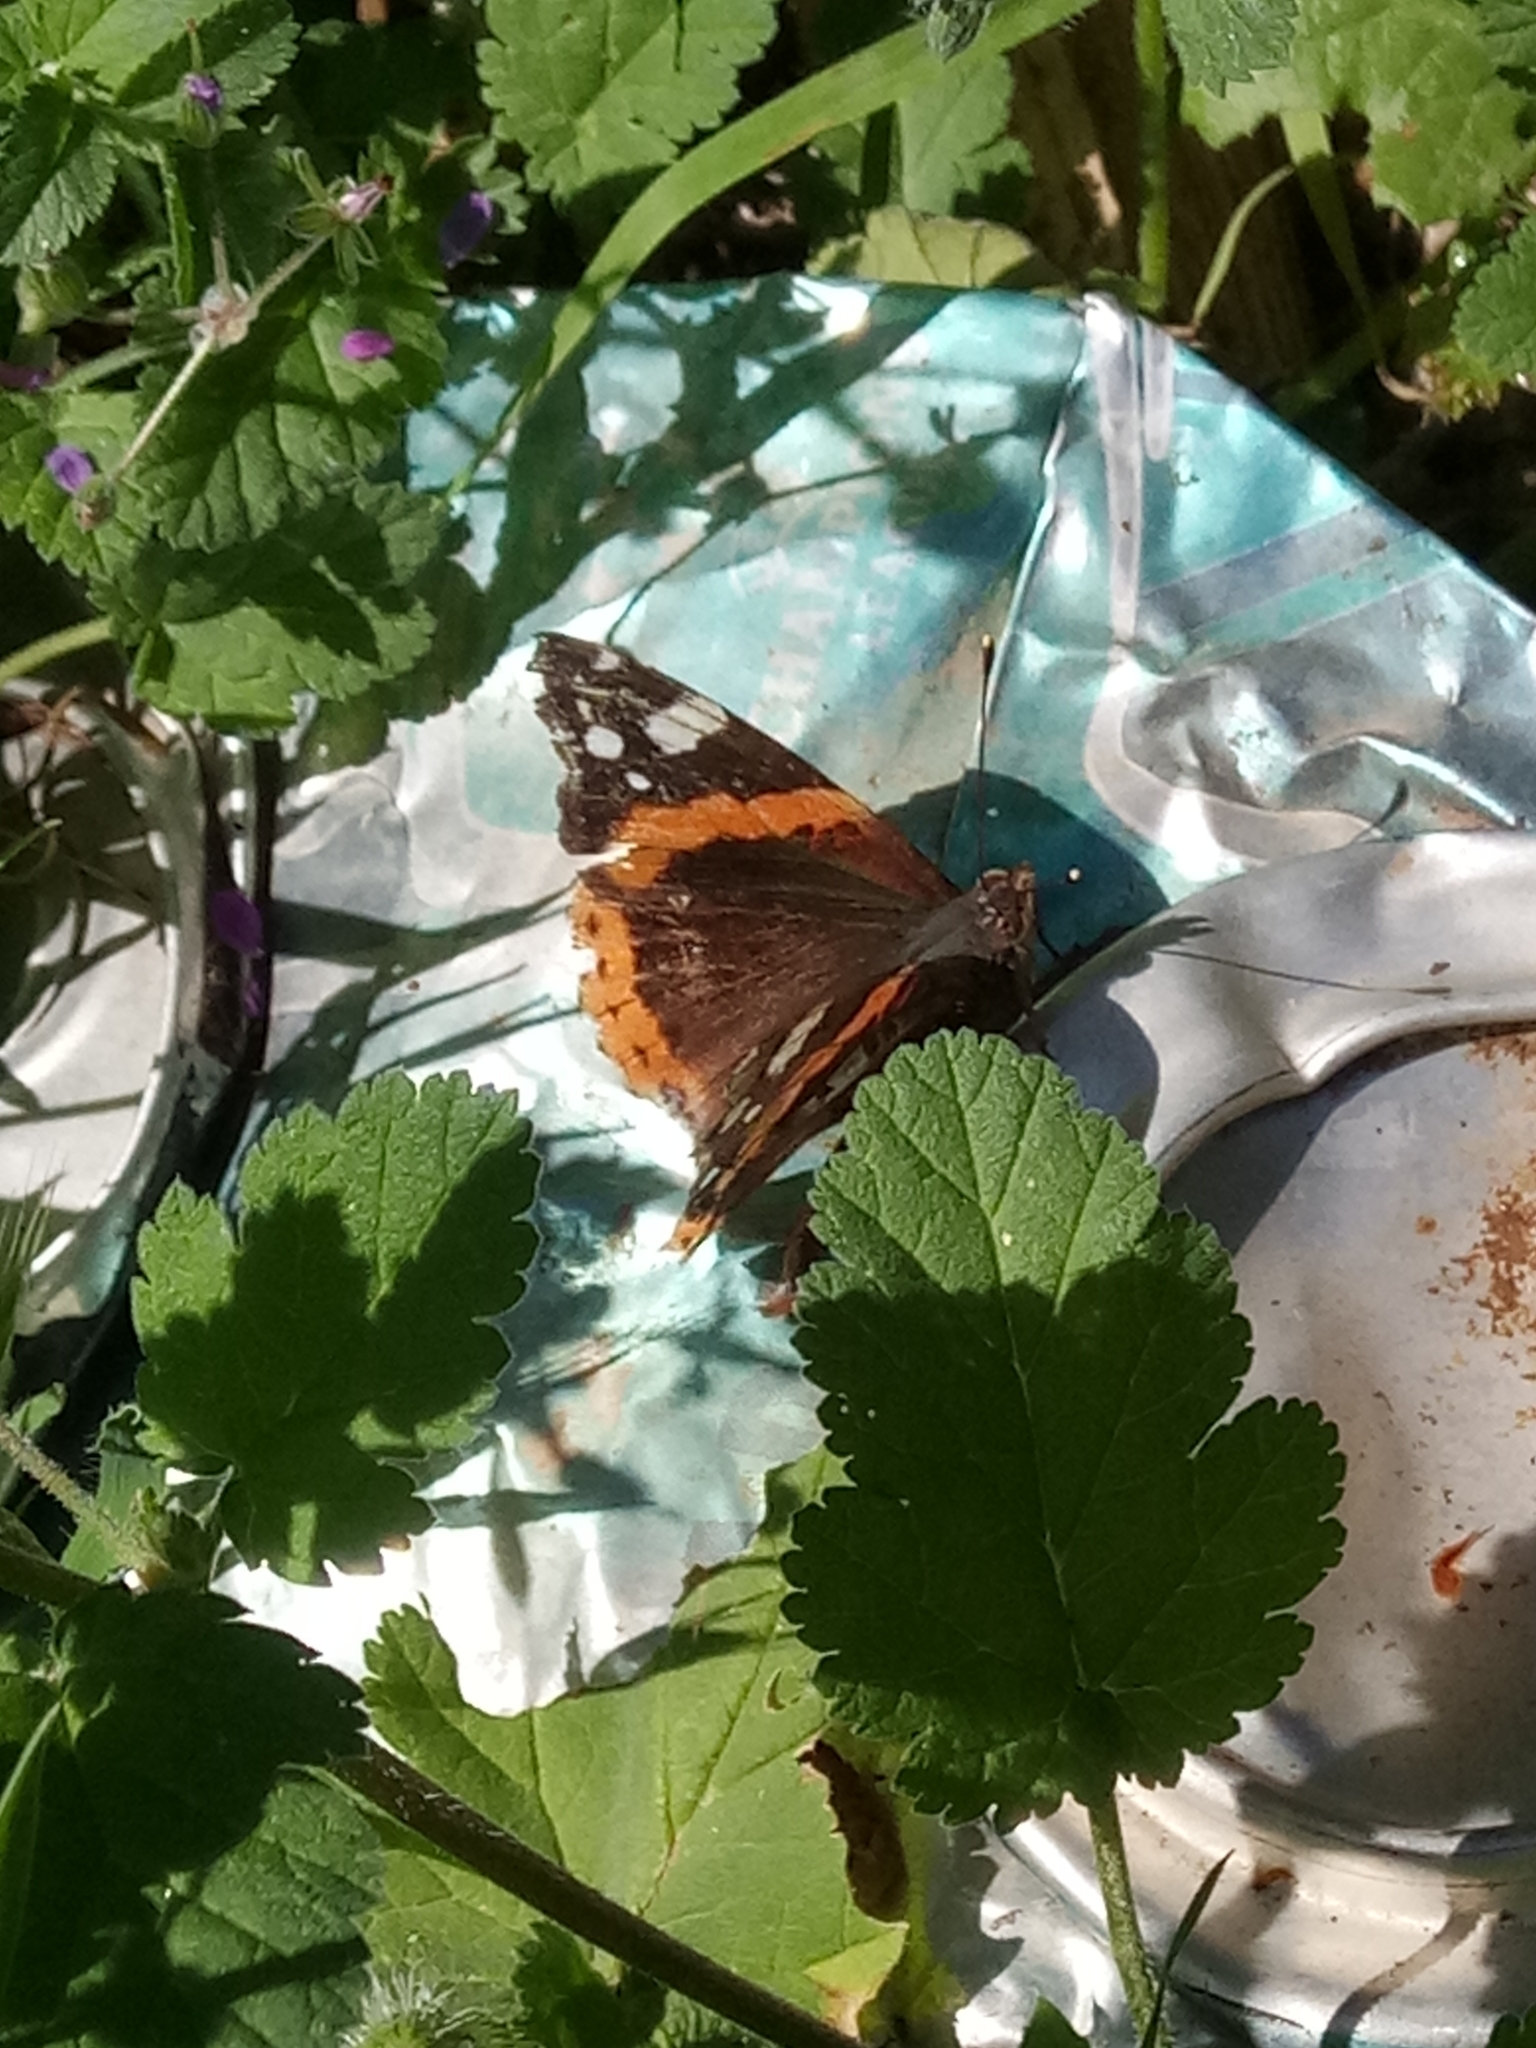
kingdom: Animalia
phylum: Arthropoda
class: Insecta
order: Lepidoptera
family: Nymphalidae
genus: Vanessa
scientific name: Vanessa atalanta
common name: Red admiral
